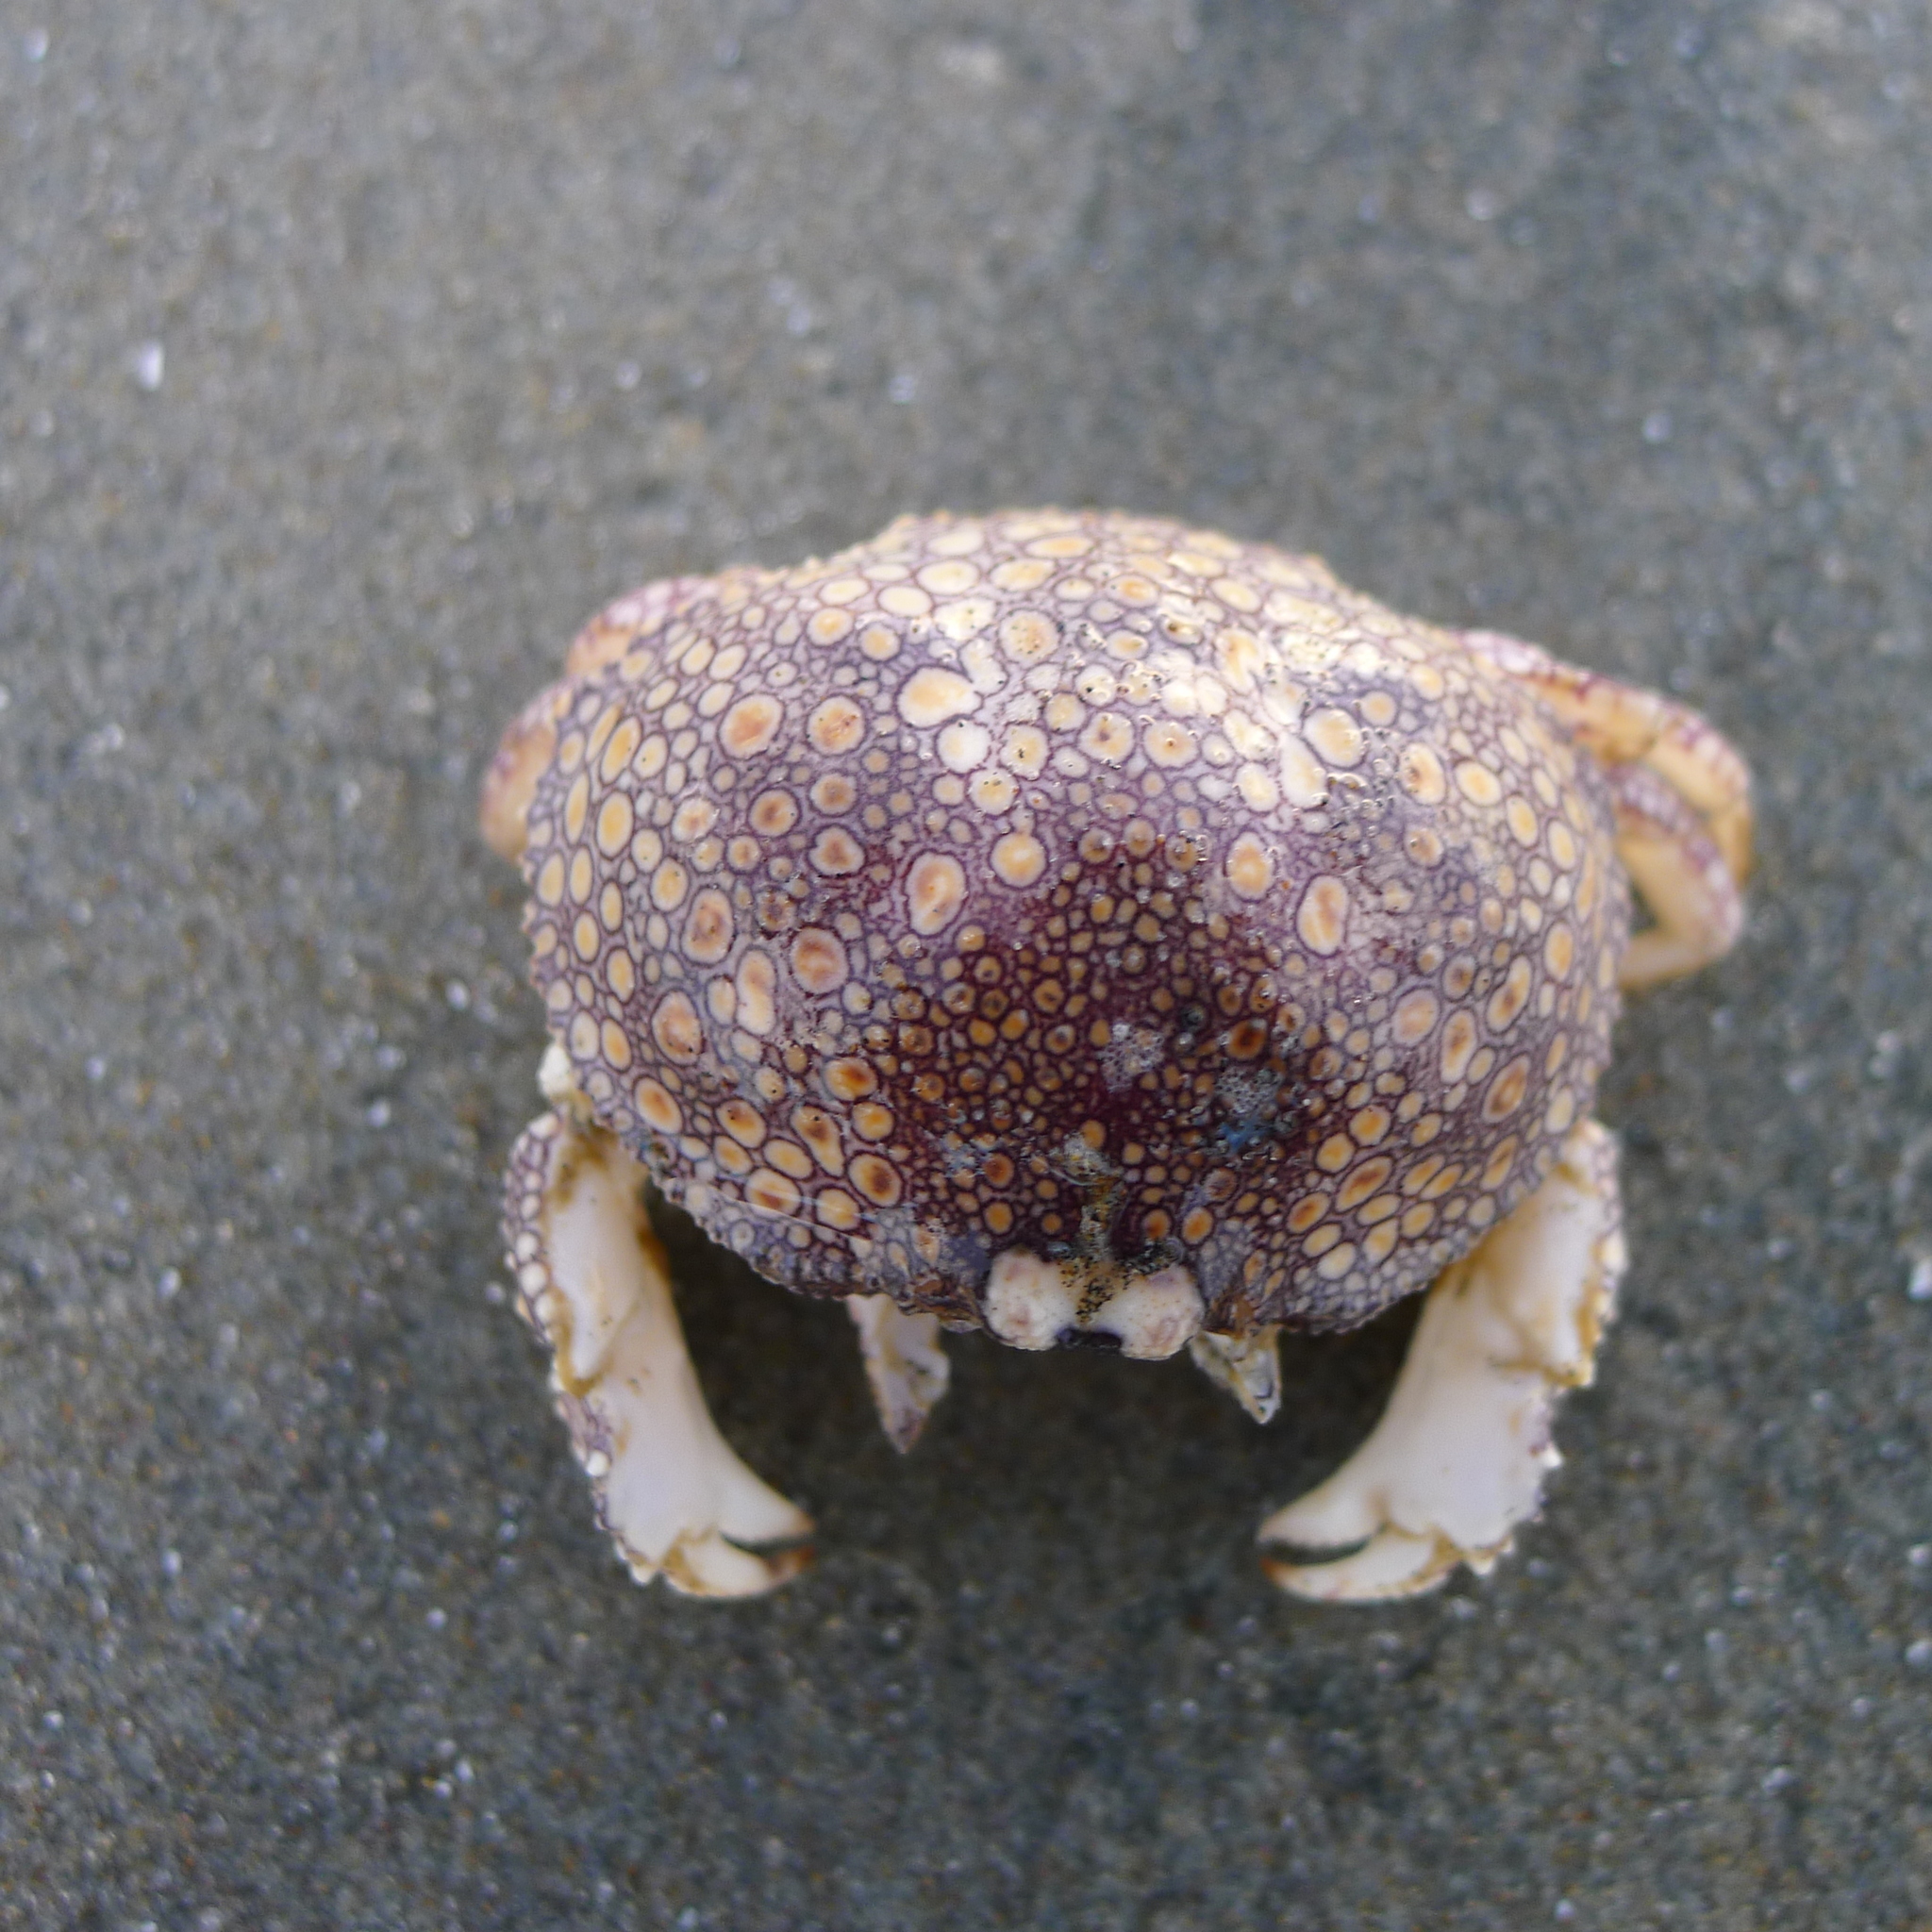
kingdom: Animalia
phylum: Arthropoda
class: Malacostraca
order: Decapoda
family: Aethridae
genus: Hepatus
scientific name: Hepatus lineatus
